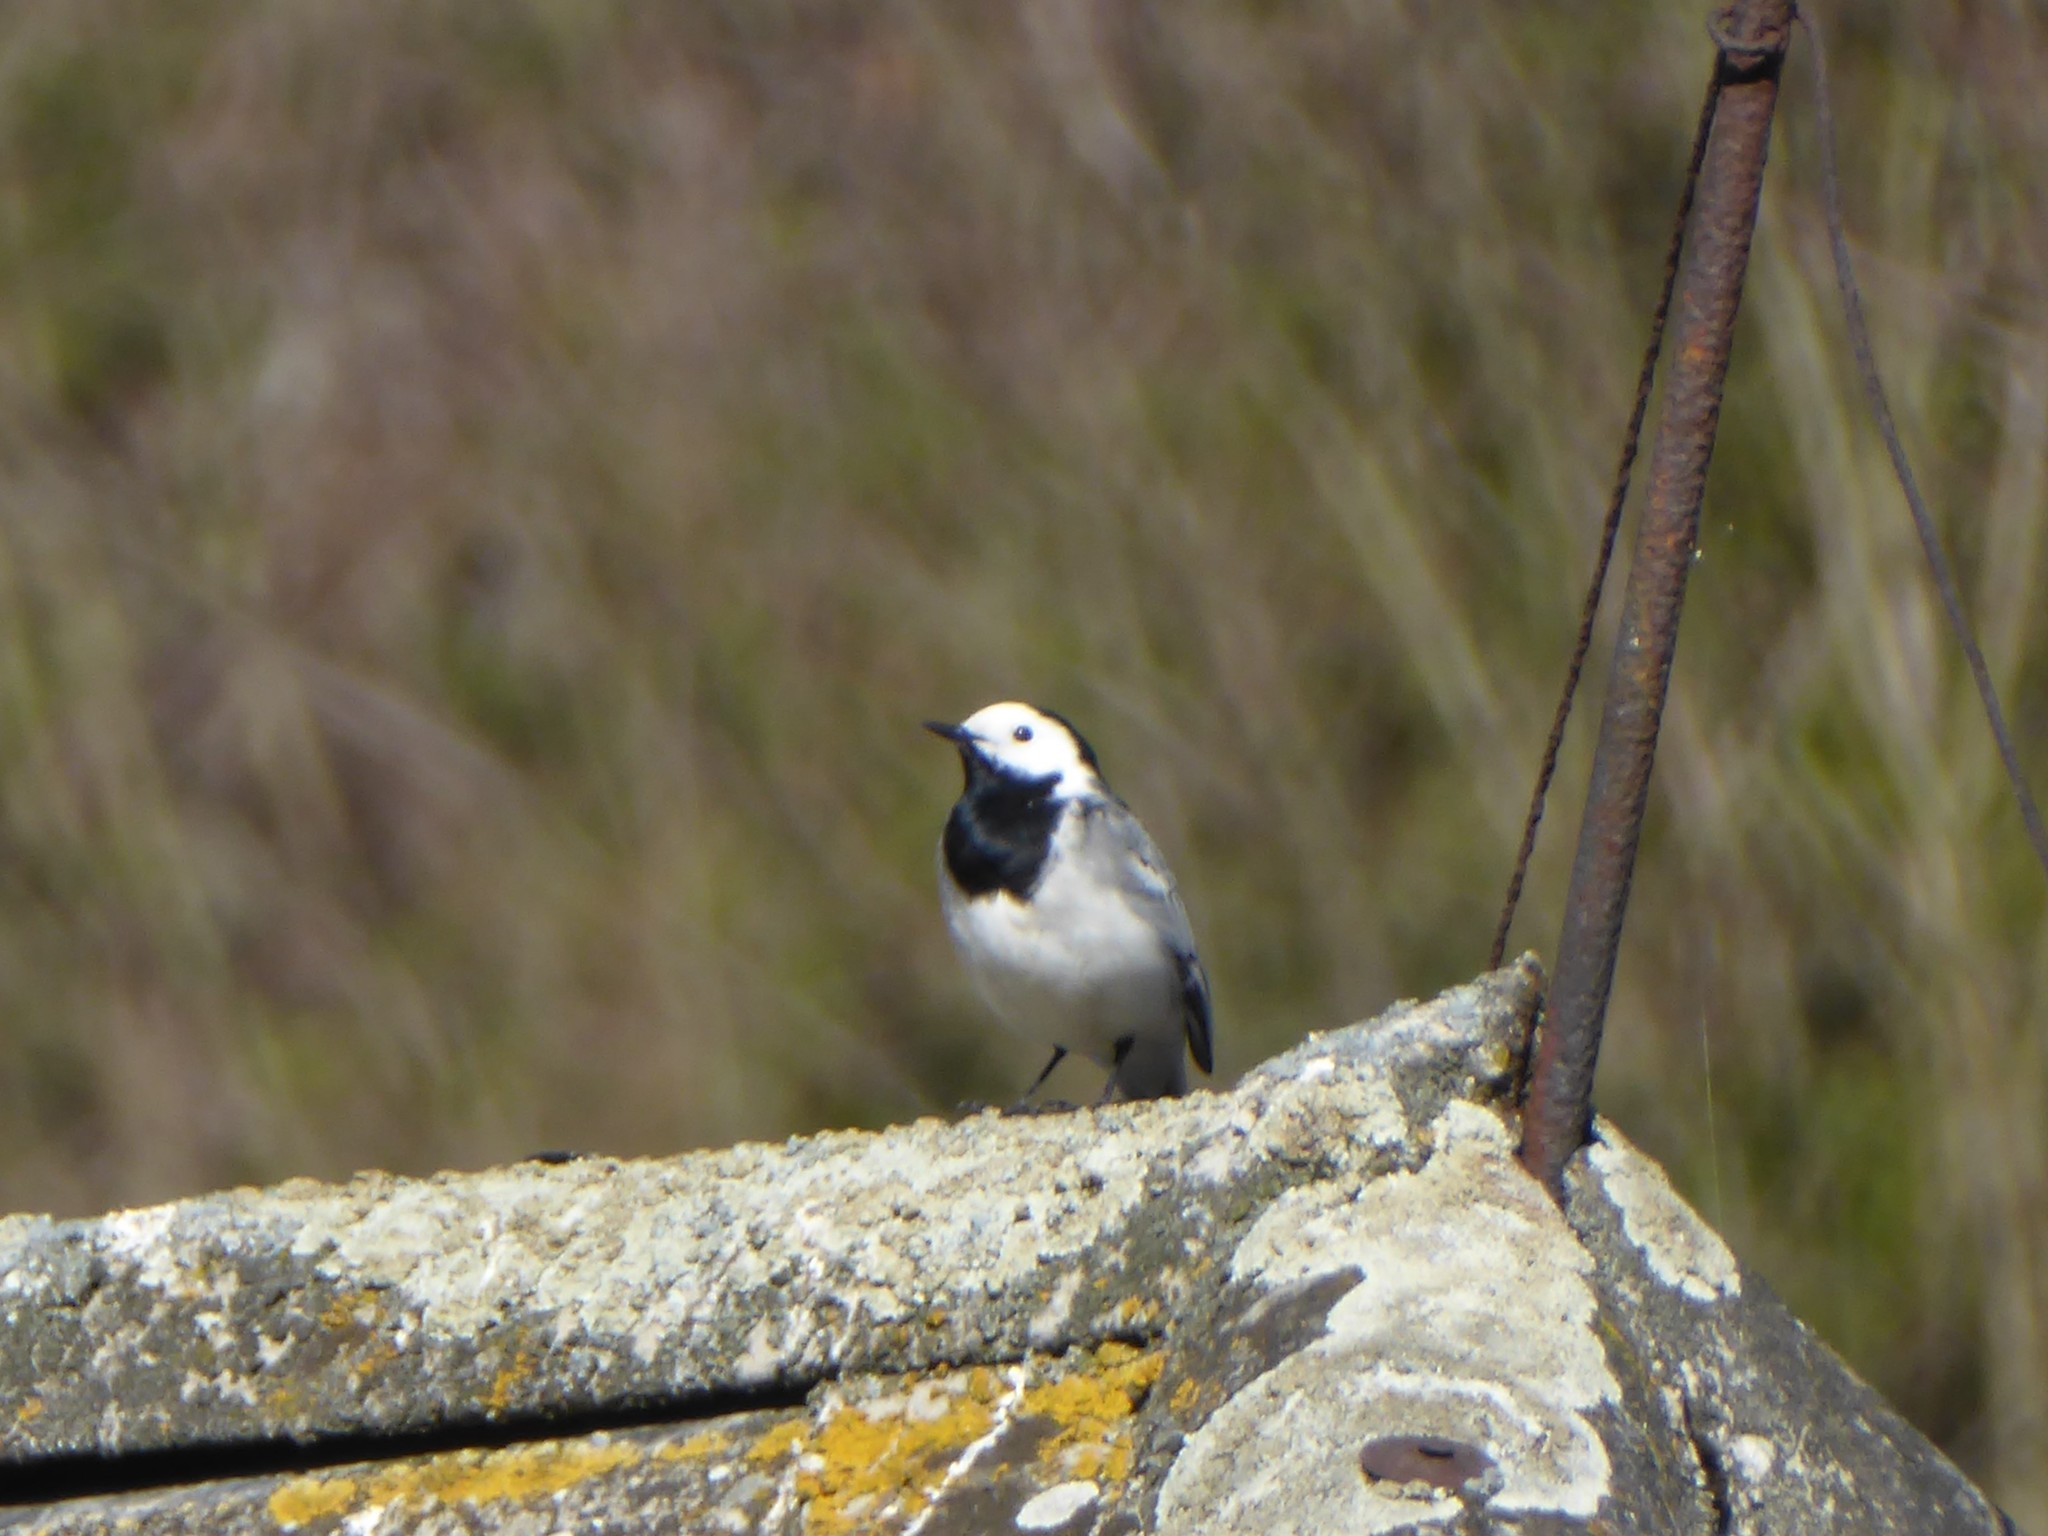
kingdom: Animalia
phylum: Chordata
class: Aves
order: Passeriformes
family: Motacillidae
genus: Motacilla
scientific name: Motacilla alba
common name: White wagtail
